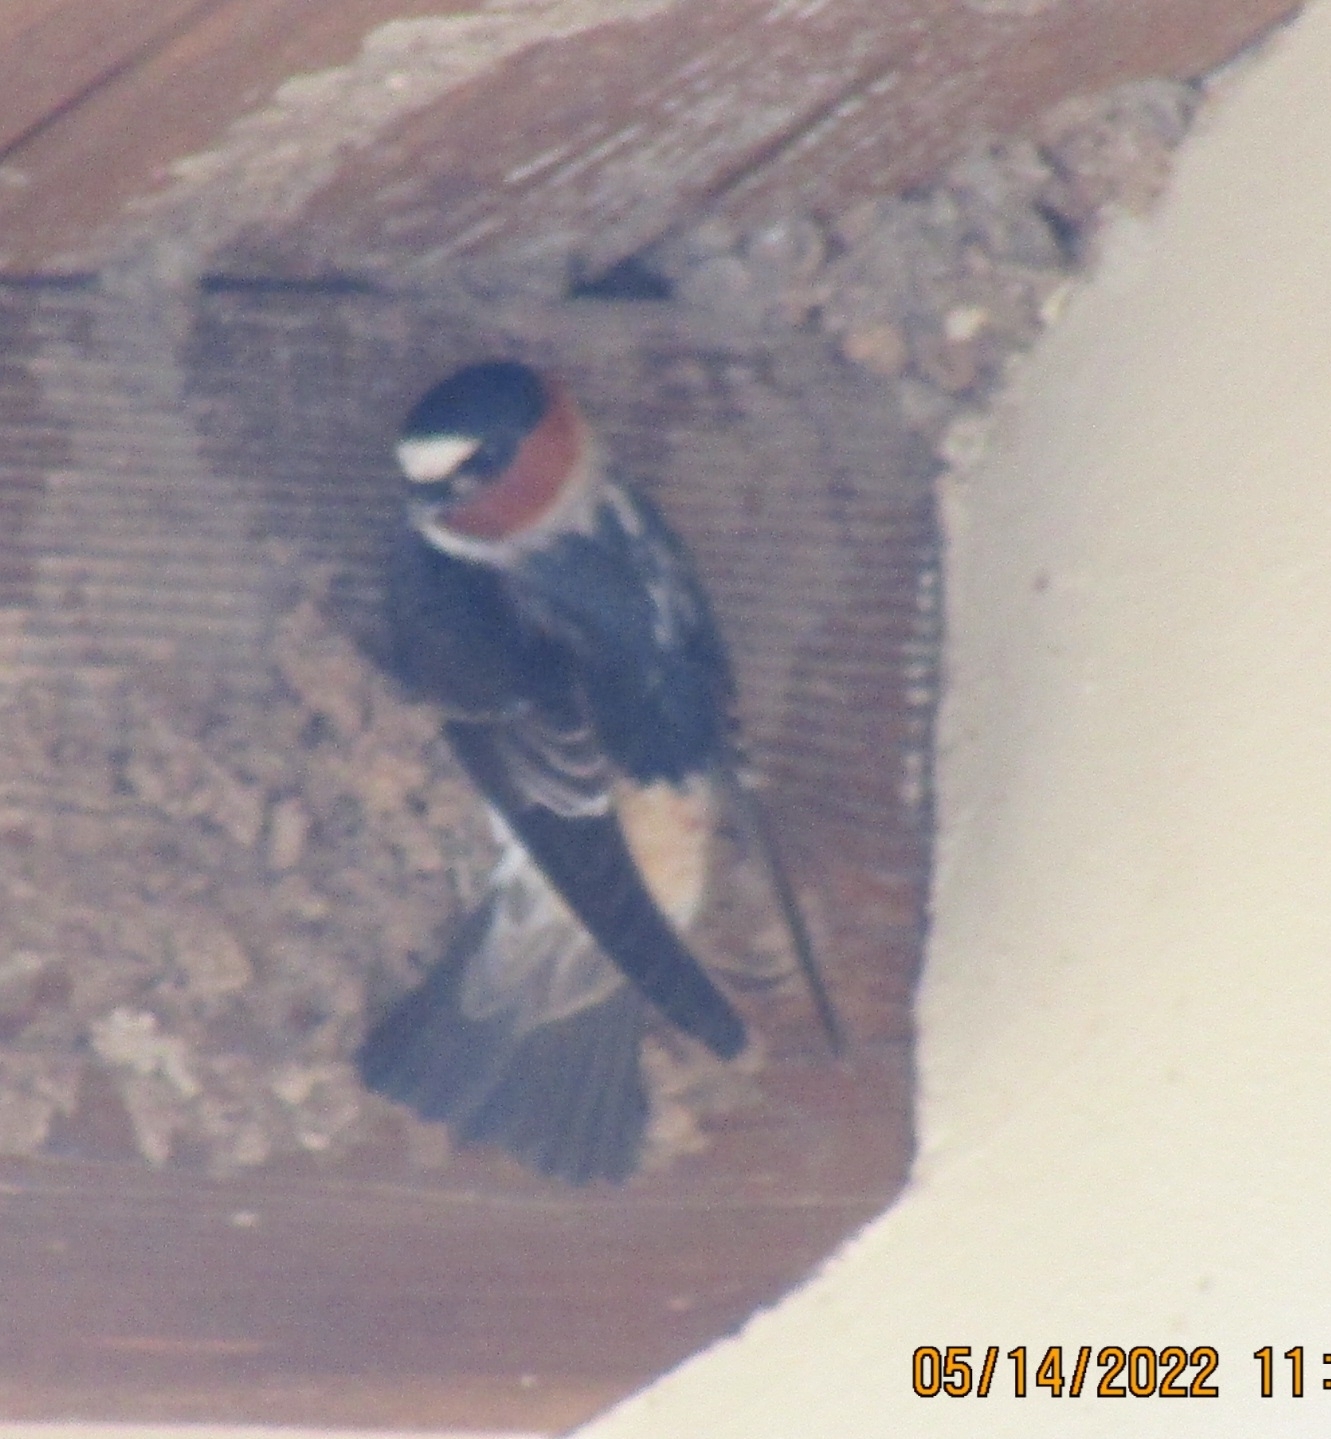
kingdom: Animalia
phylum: Chordata
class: Aves
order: Passeriformes
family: Hirundinidae
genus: Petrochelidon
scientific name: Petrochelidon pyrrhonota
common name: American cliff swallow
